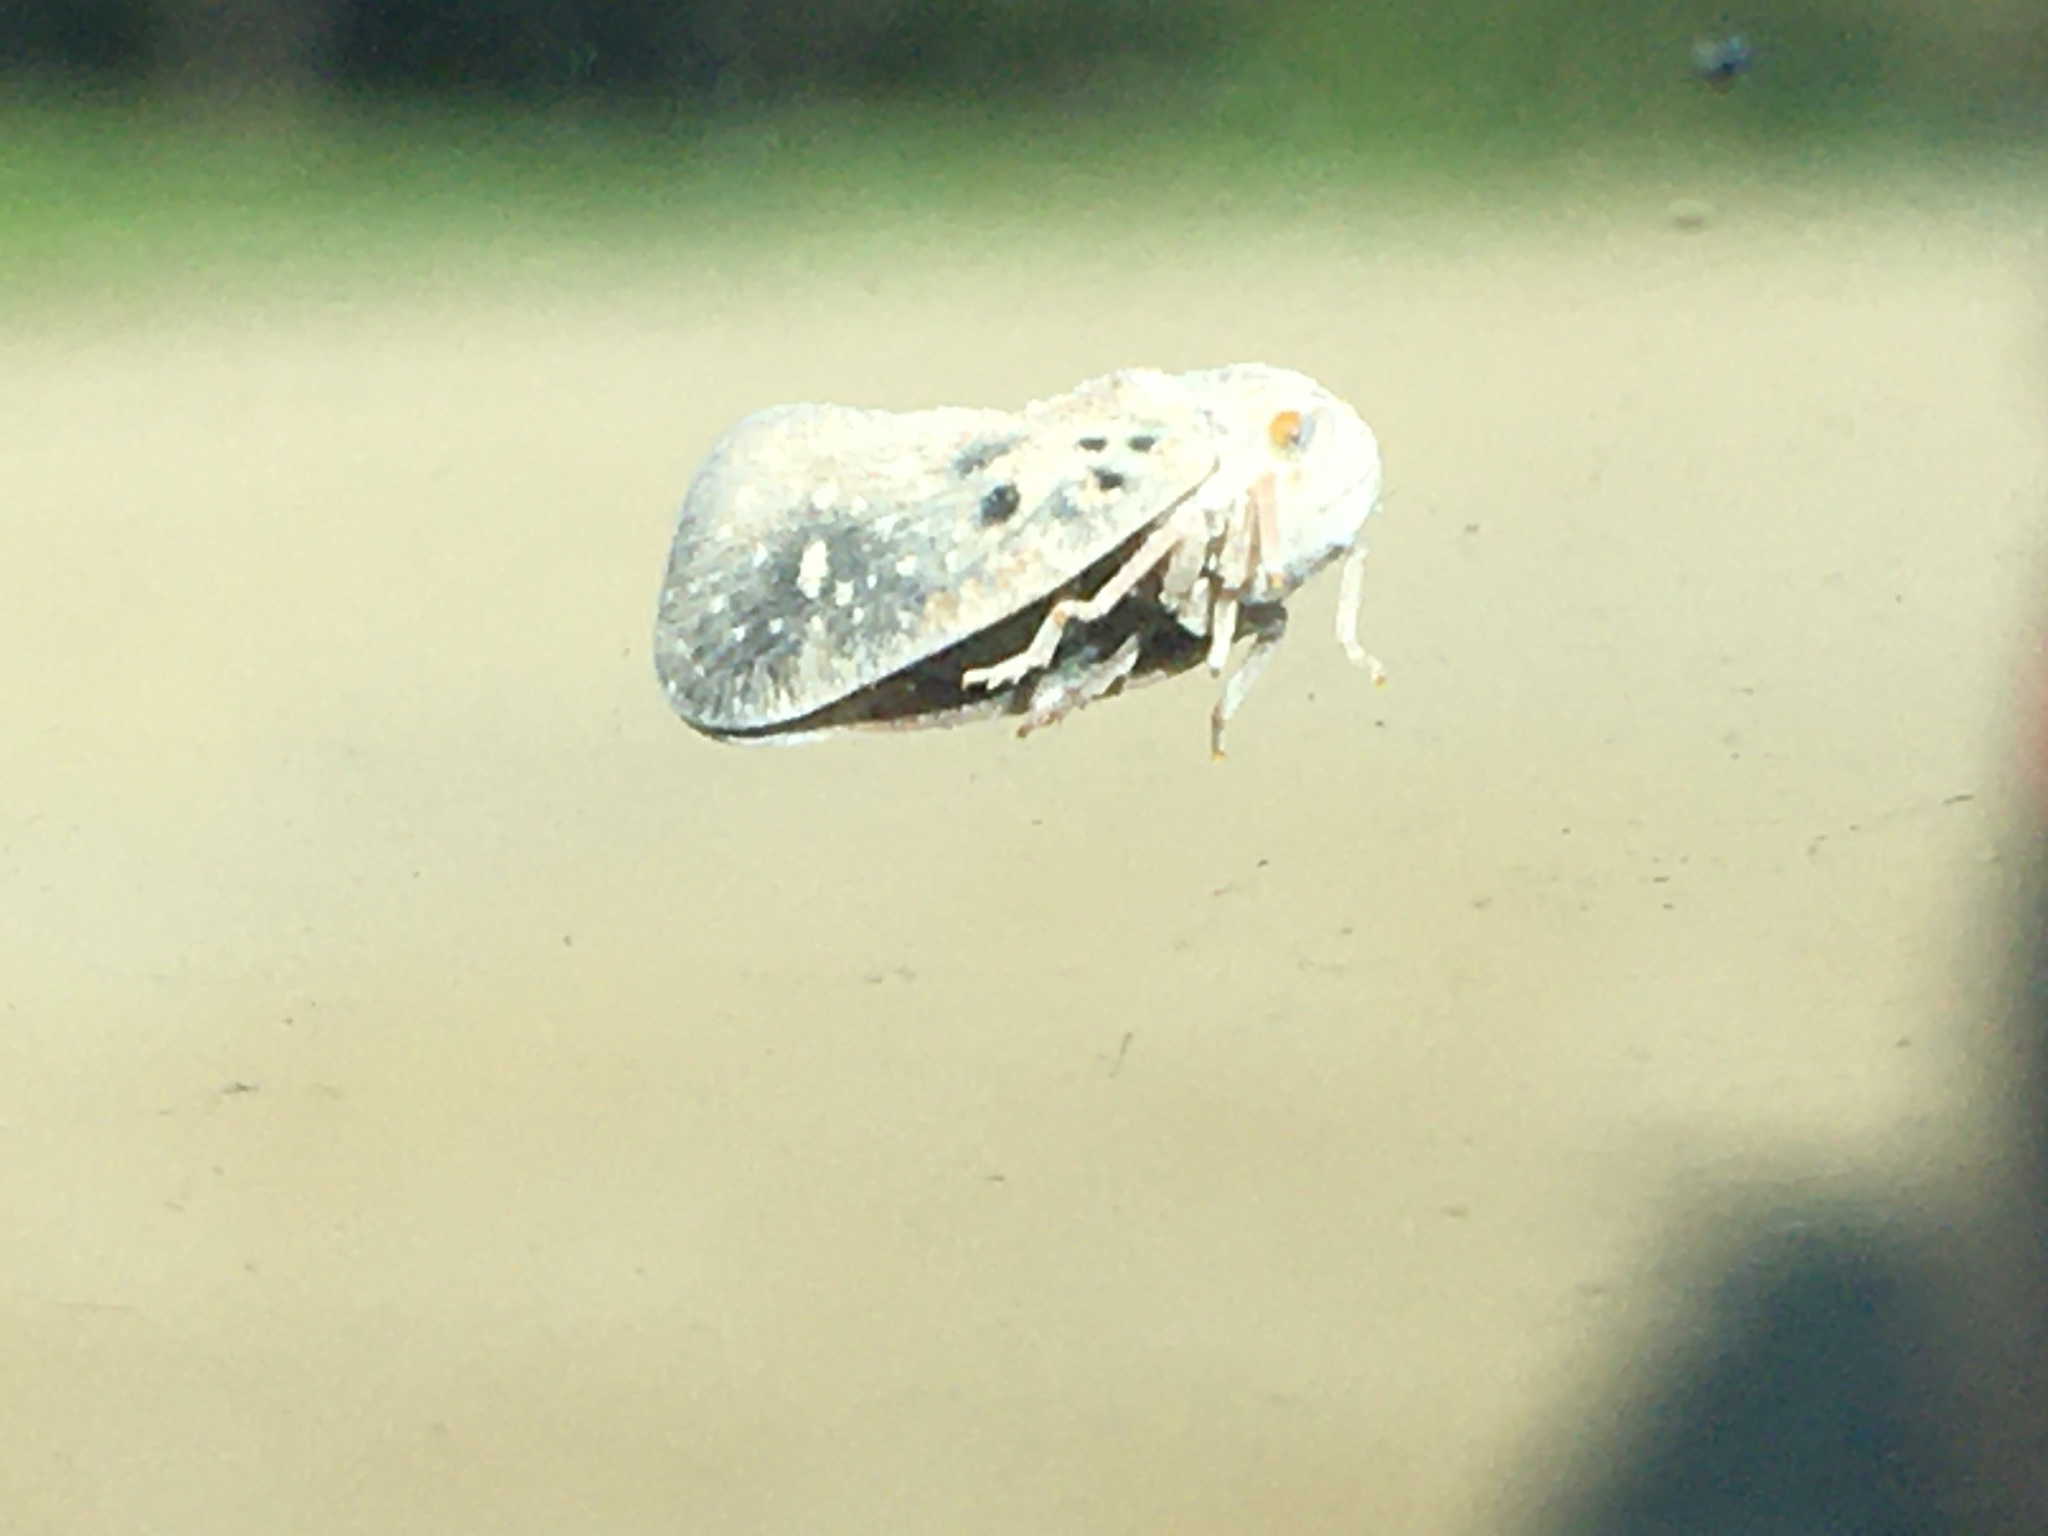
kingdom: Animalia
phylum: Arthropoda
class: Insecta
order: Hemiptera
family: Flatidae
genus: Metcalfa
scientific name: Metcalfa pruinosa
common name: Citrus flatid planthopper
